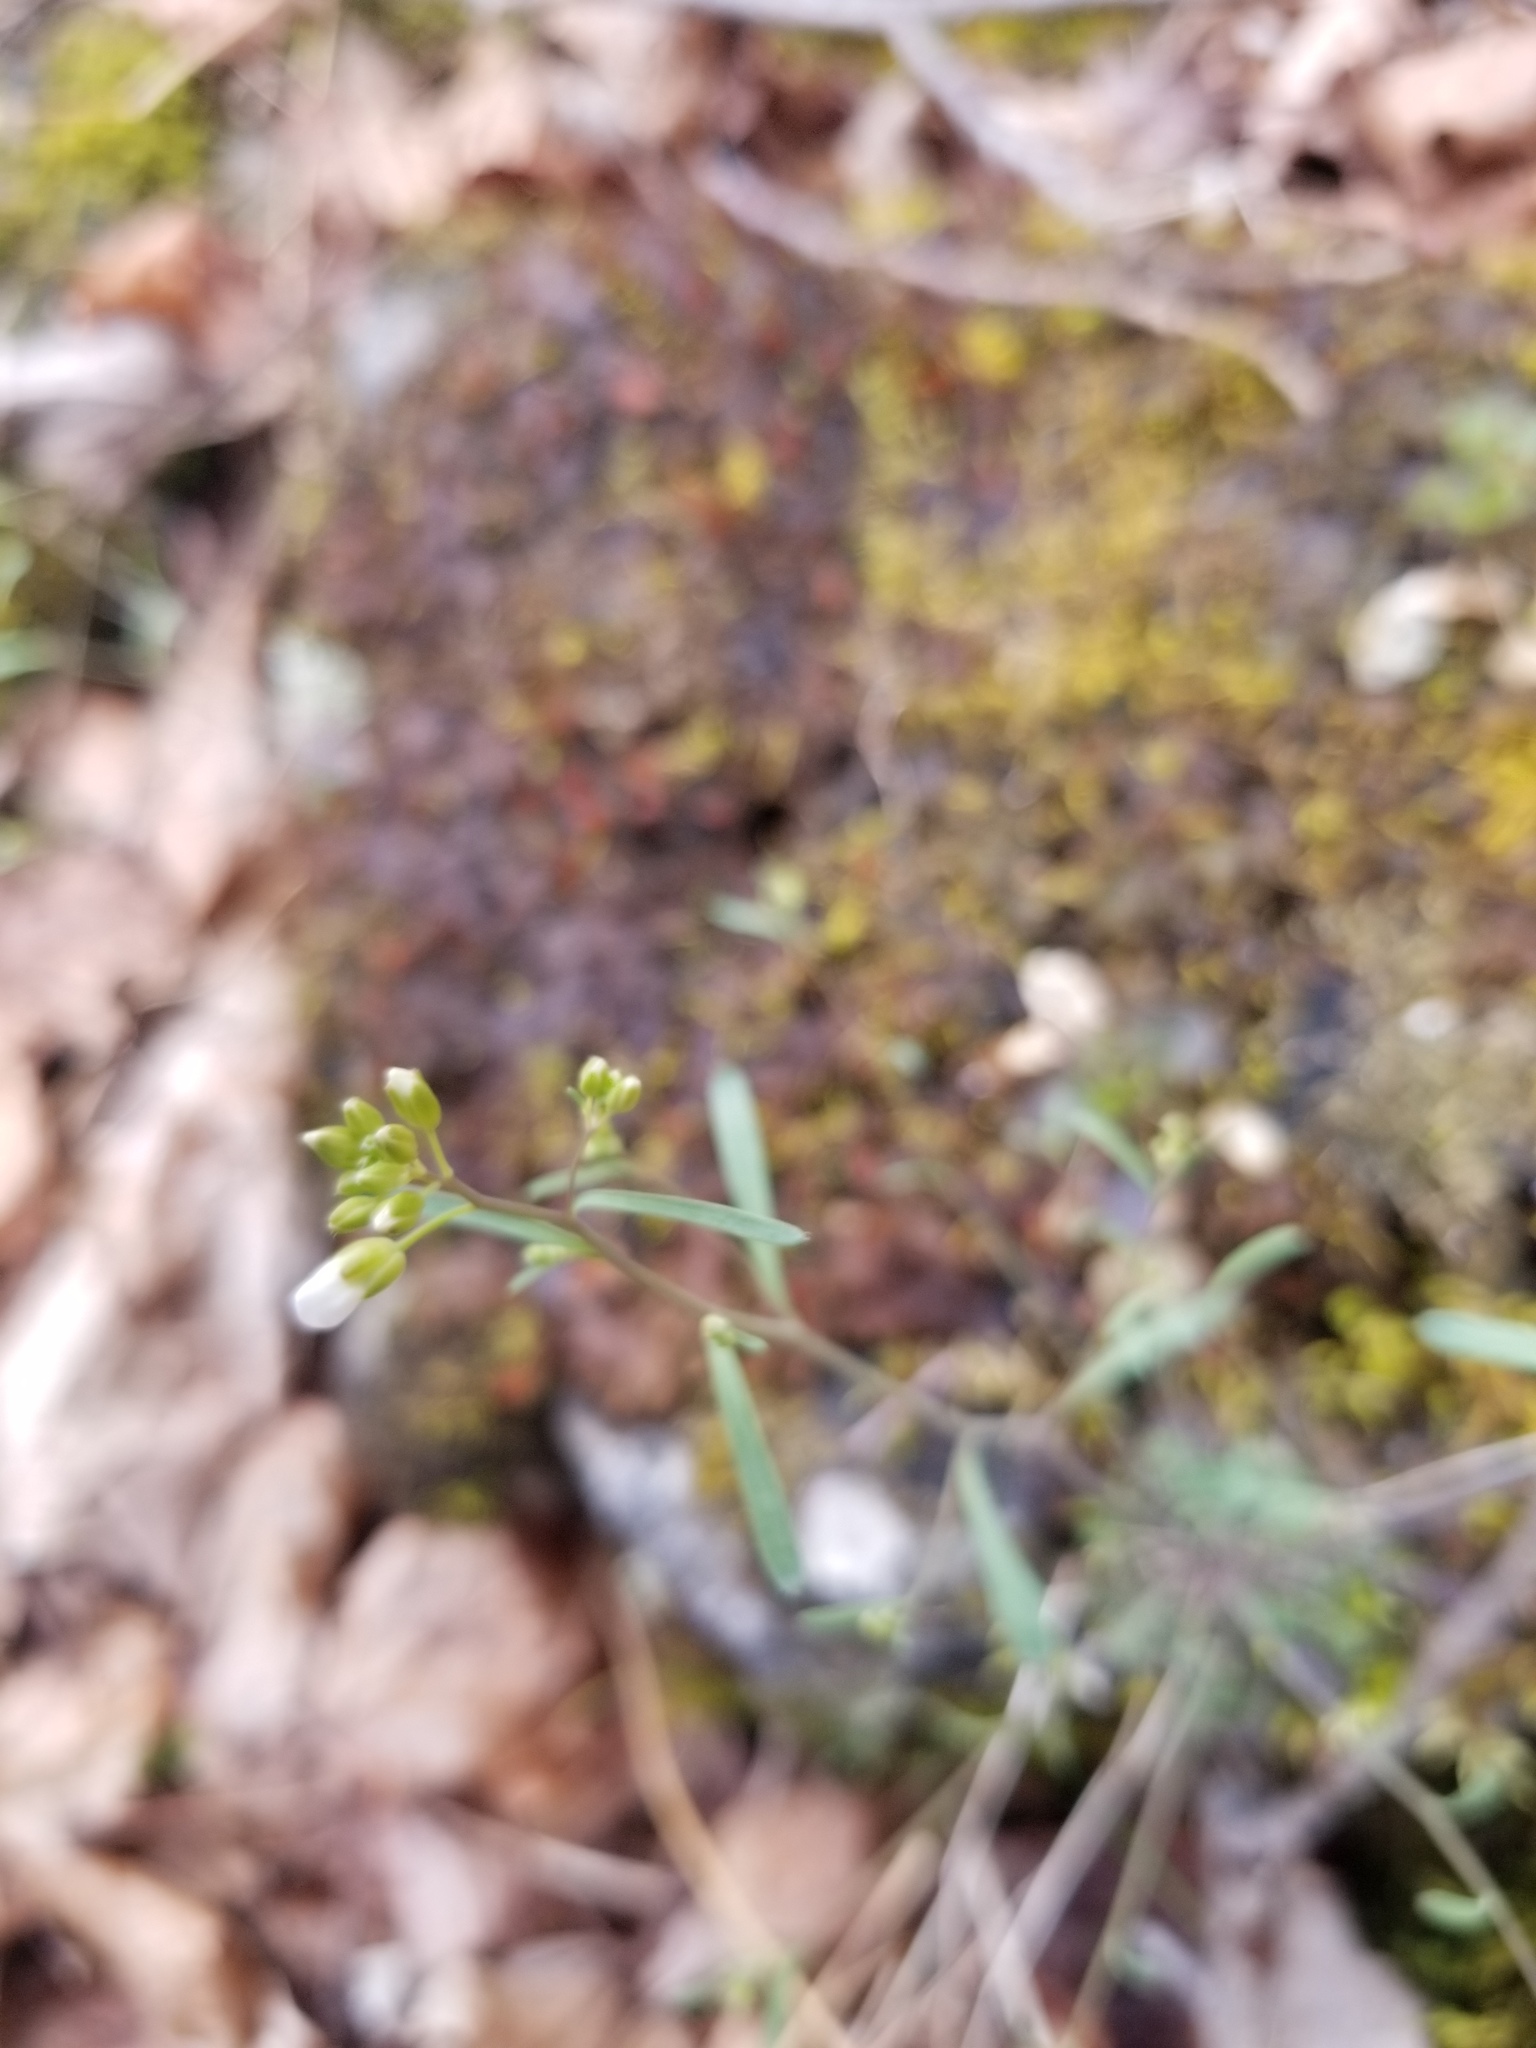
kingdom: Plantae
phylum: Tracheophyta
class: Magnoliopsida
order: Brassicales
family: Brassicaceae
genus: Arabidopsis
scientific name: Arabidopsis lyrata
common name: Lyrate rockcress
